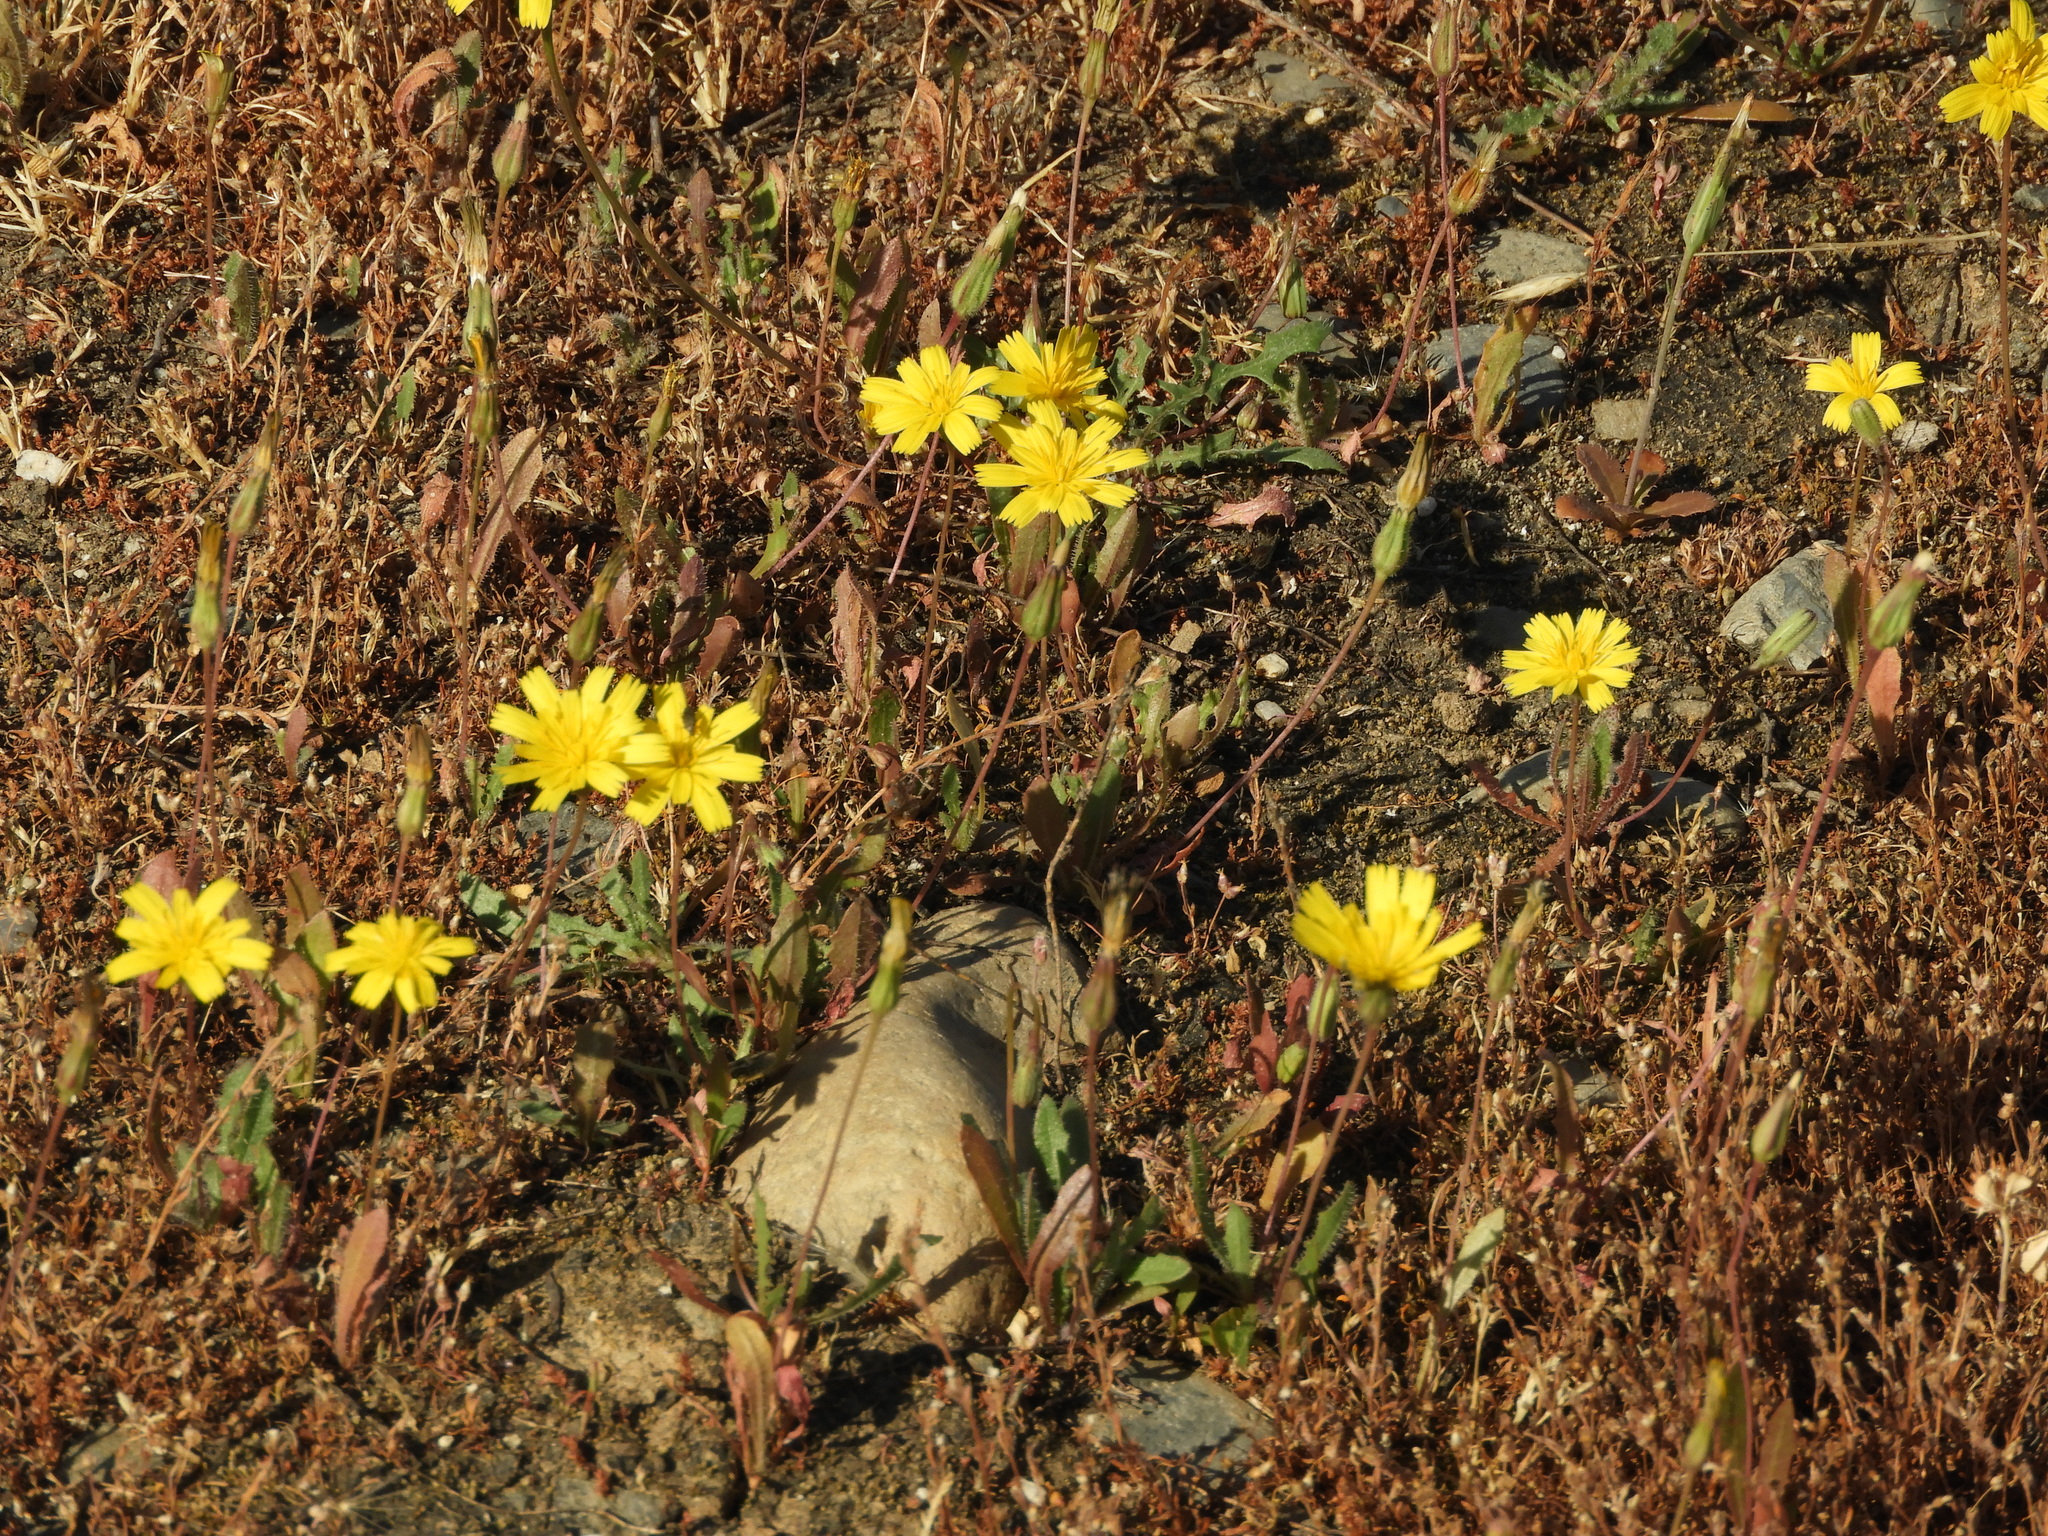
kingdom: Plantae
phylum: Tracheophyta
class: Magnoliopsida
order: Asterales
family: Asteraceae
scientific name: Asteraceae
